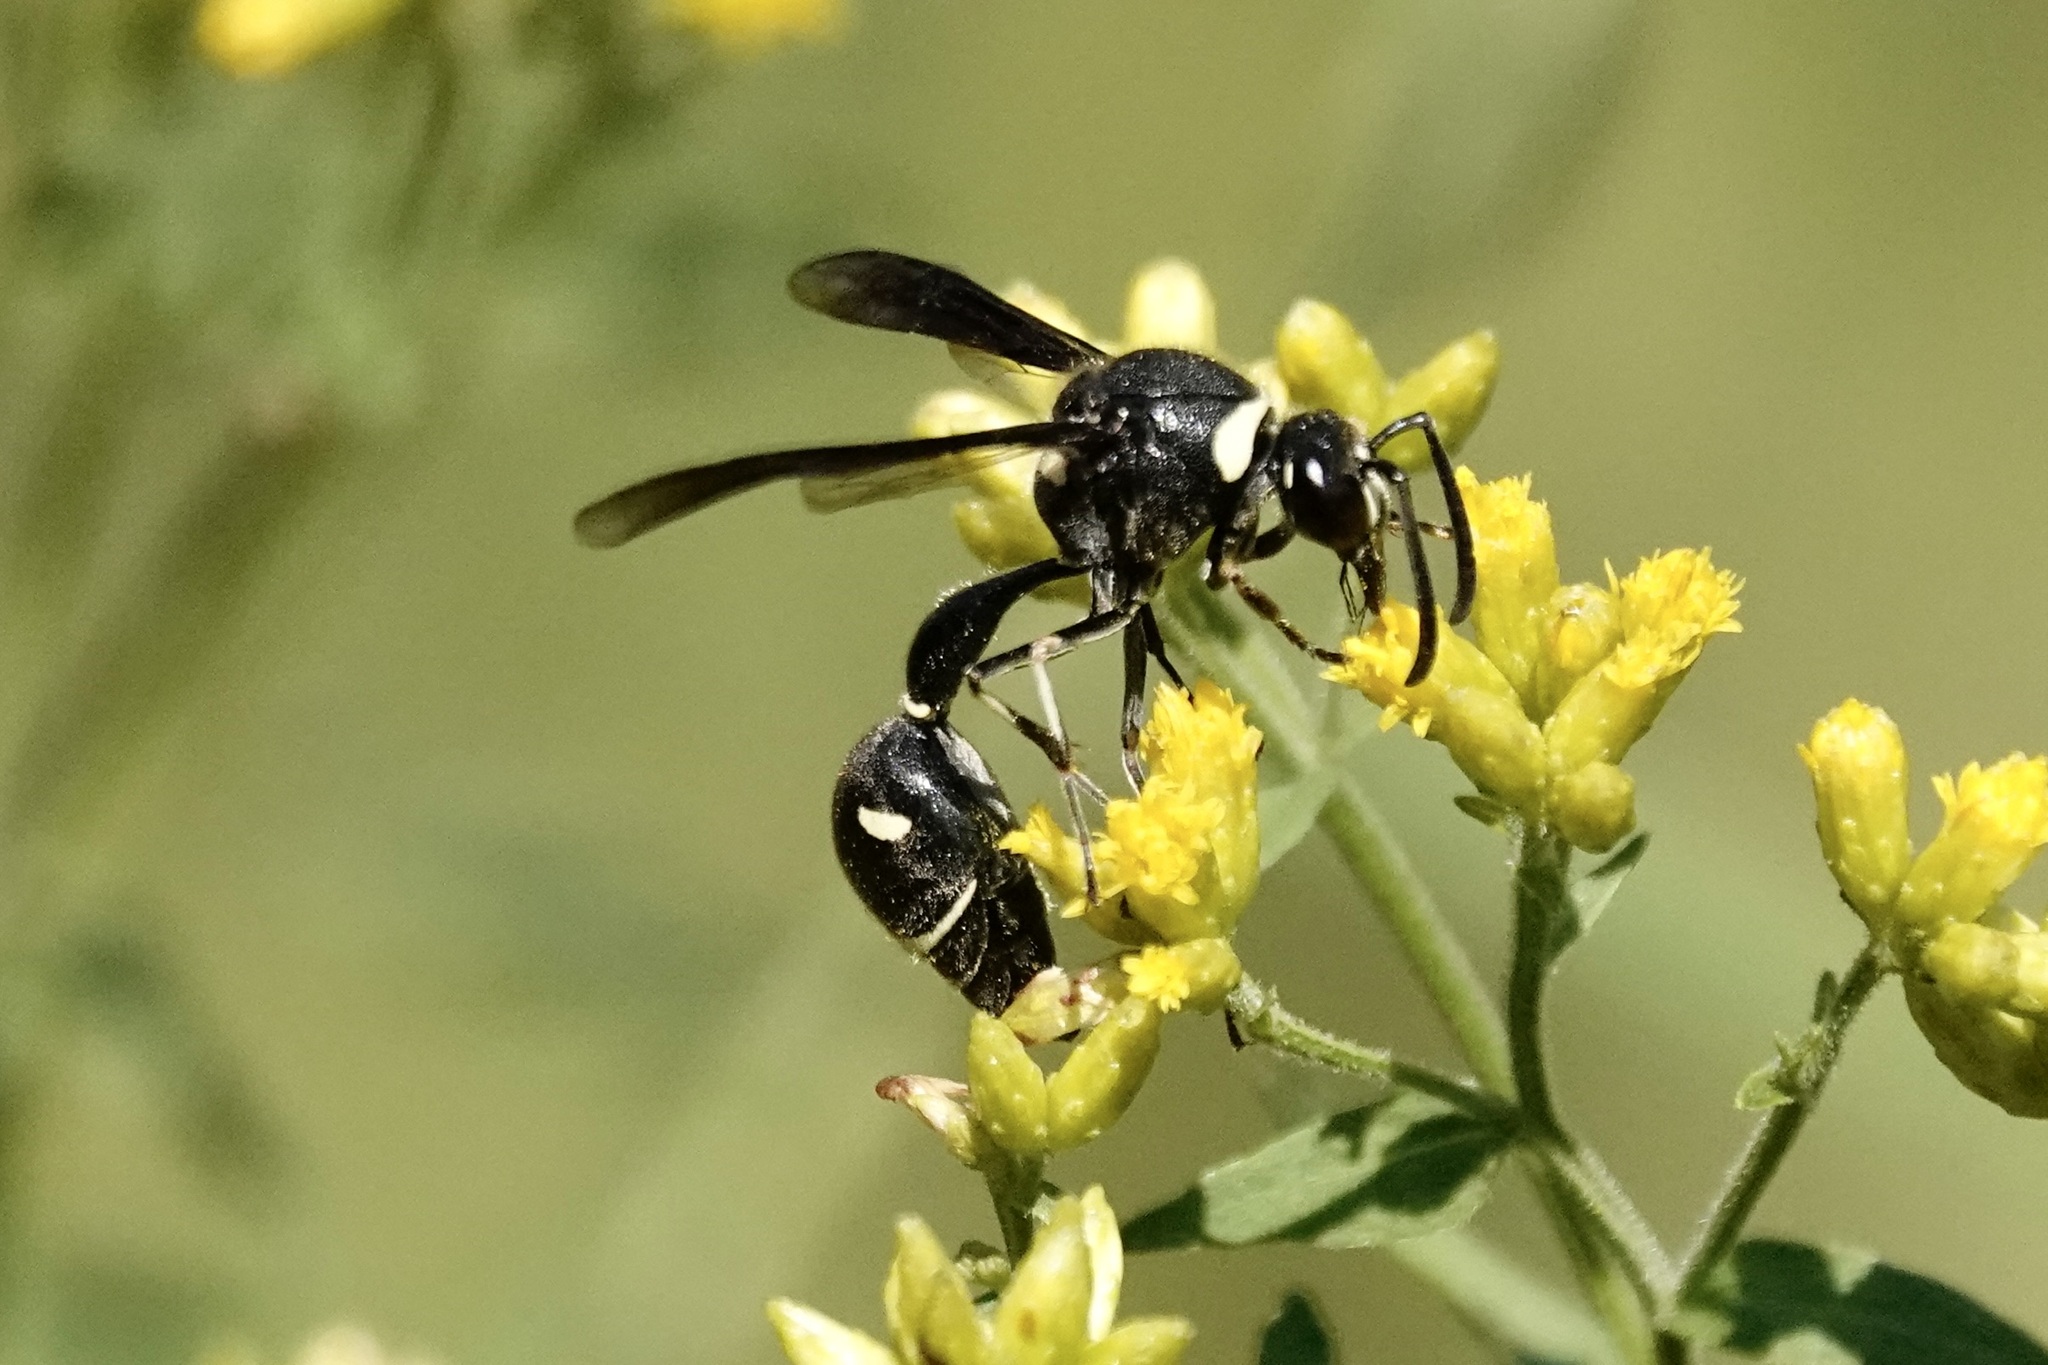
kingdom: Animalia
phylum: Arthropoda
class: Insecta
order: Hymenoptera
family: Vespidae
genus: Eumenes
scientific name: Eumenes fraternus
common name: Fraternal potter wasp
